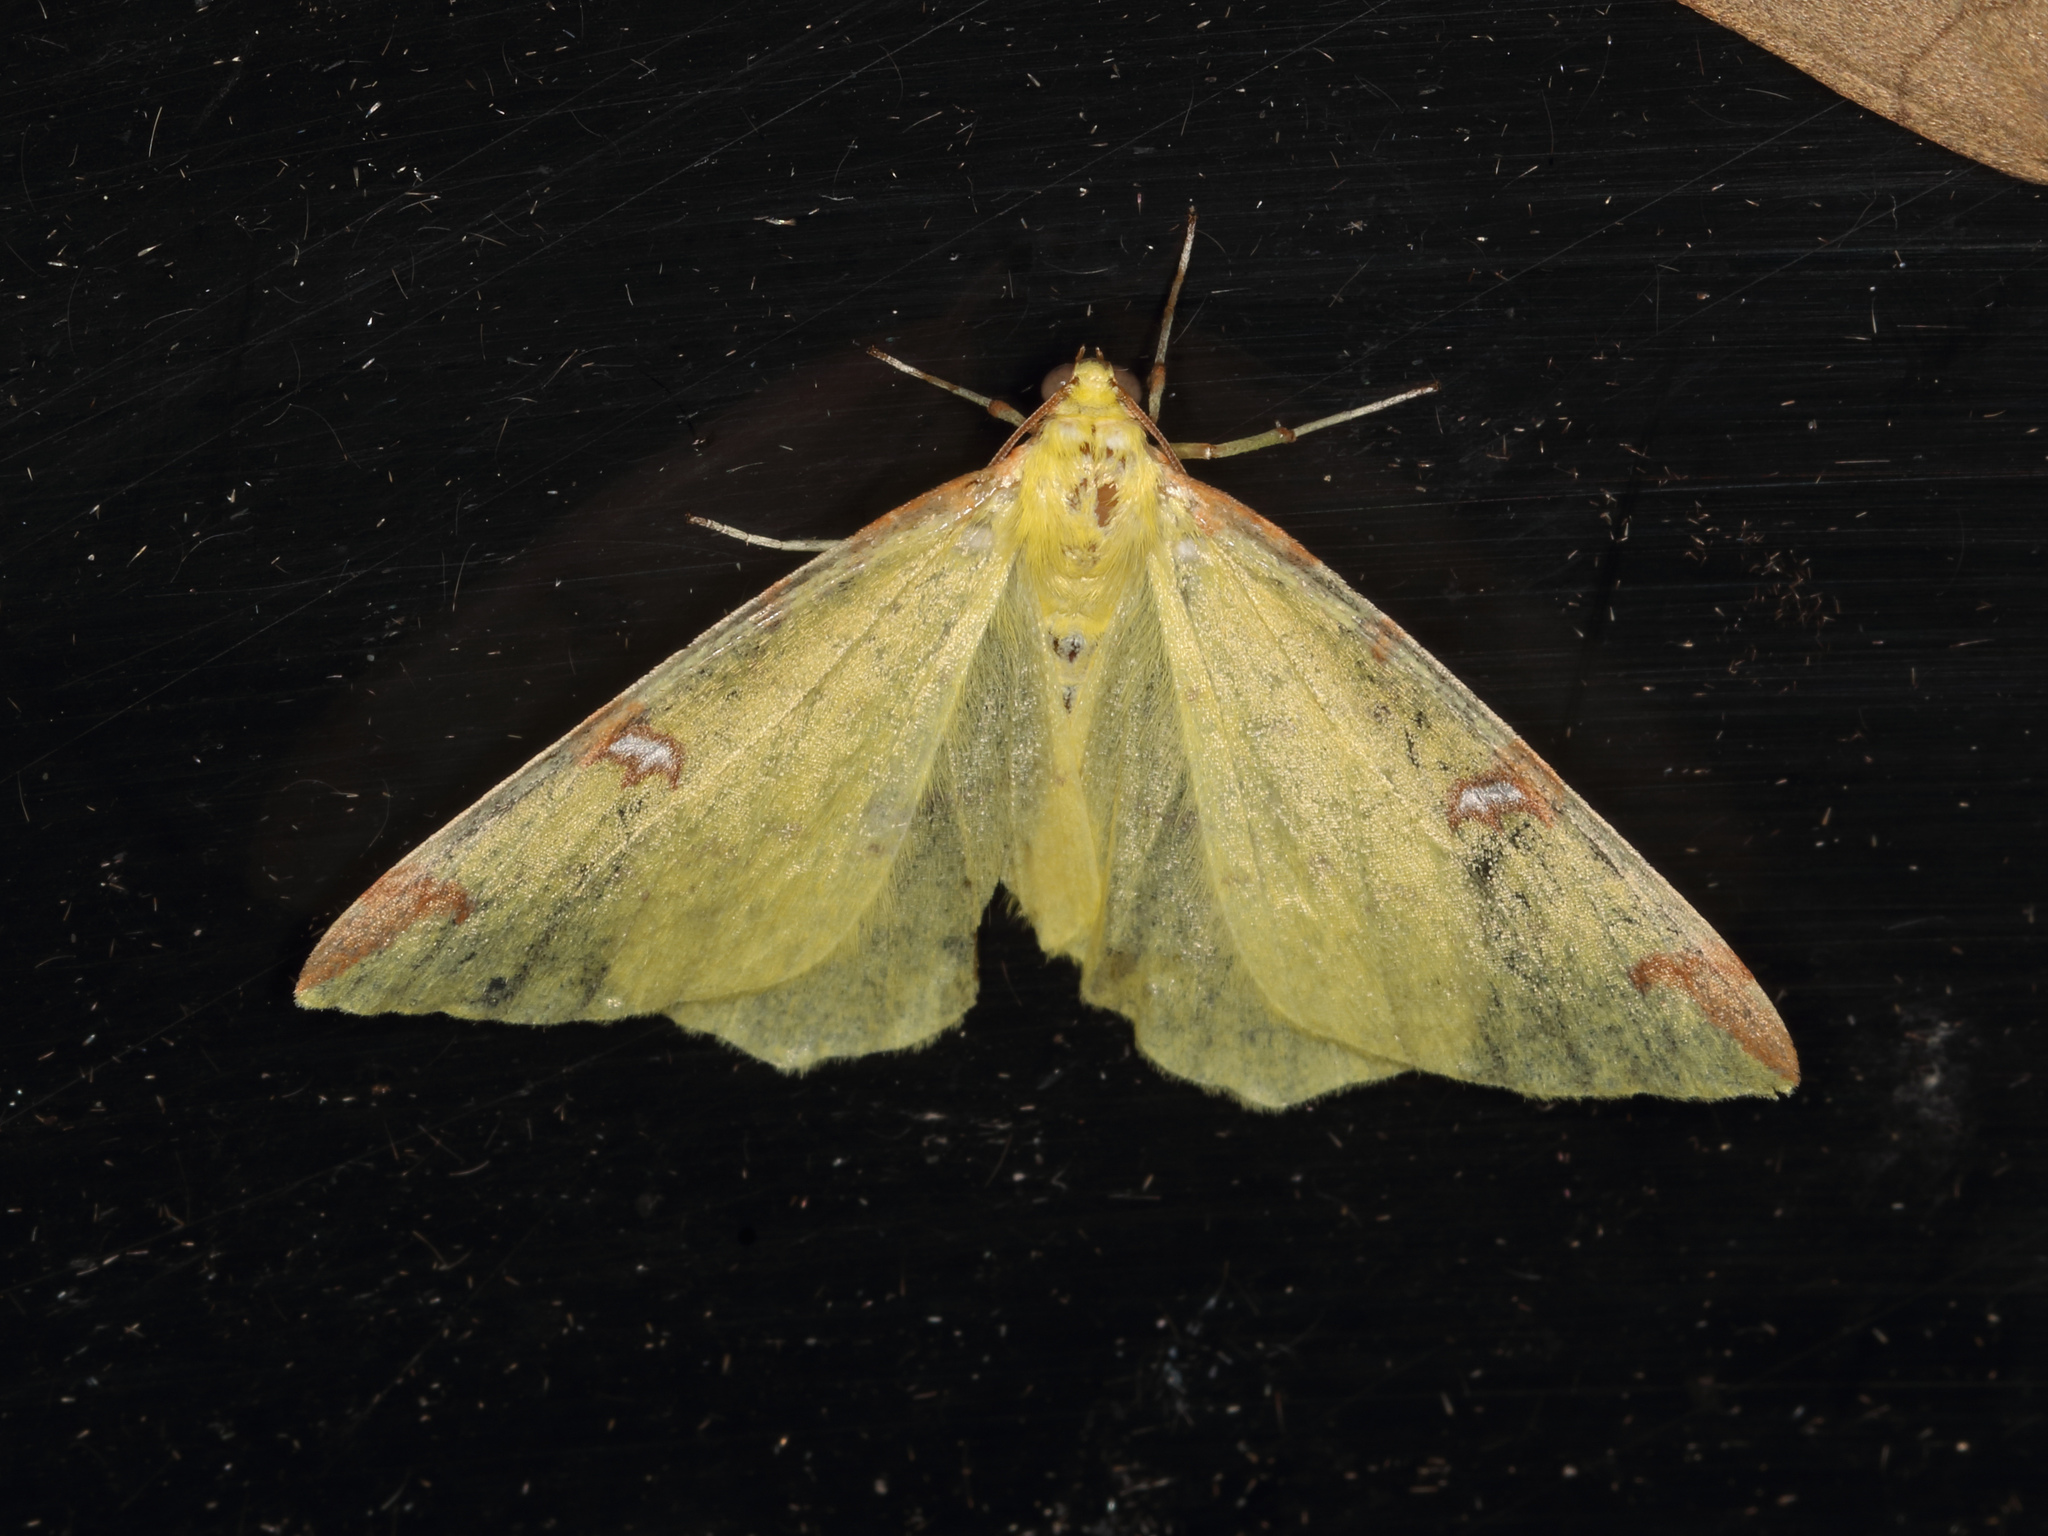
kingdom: Animalia
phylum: Arthropoda
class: Insecta
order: Lepidoptera
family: Geometridae
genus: Opisthograptis
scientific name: Opisthograptis luteolata
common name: Brimstone moth
